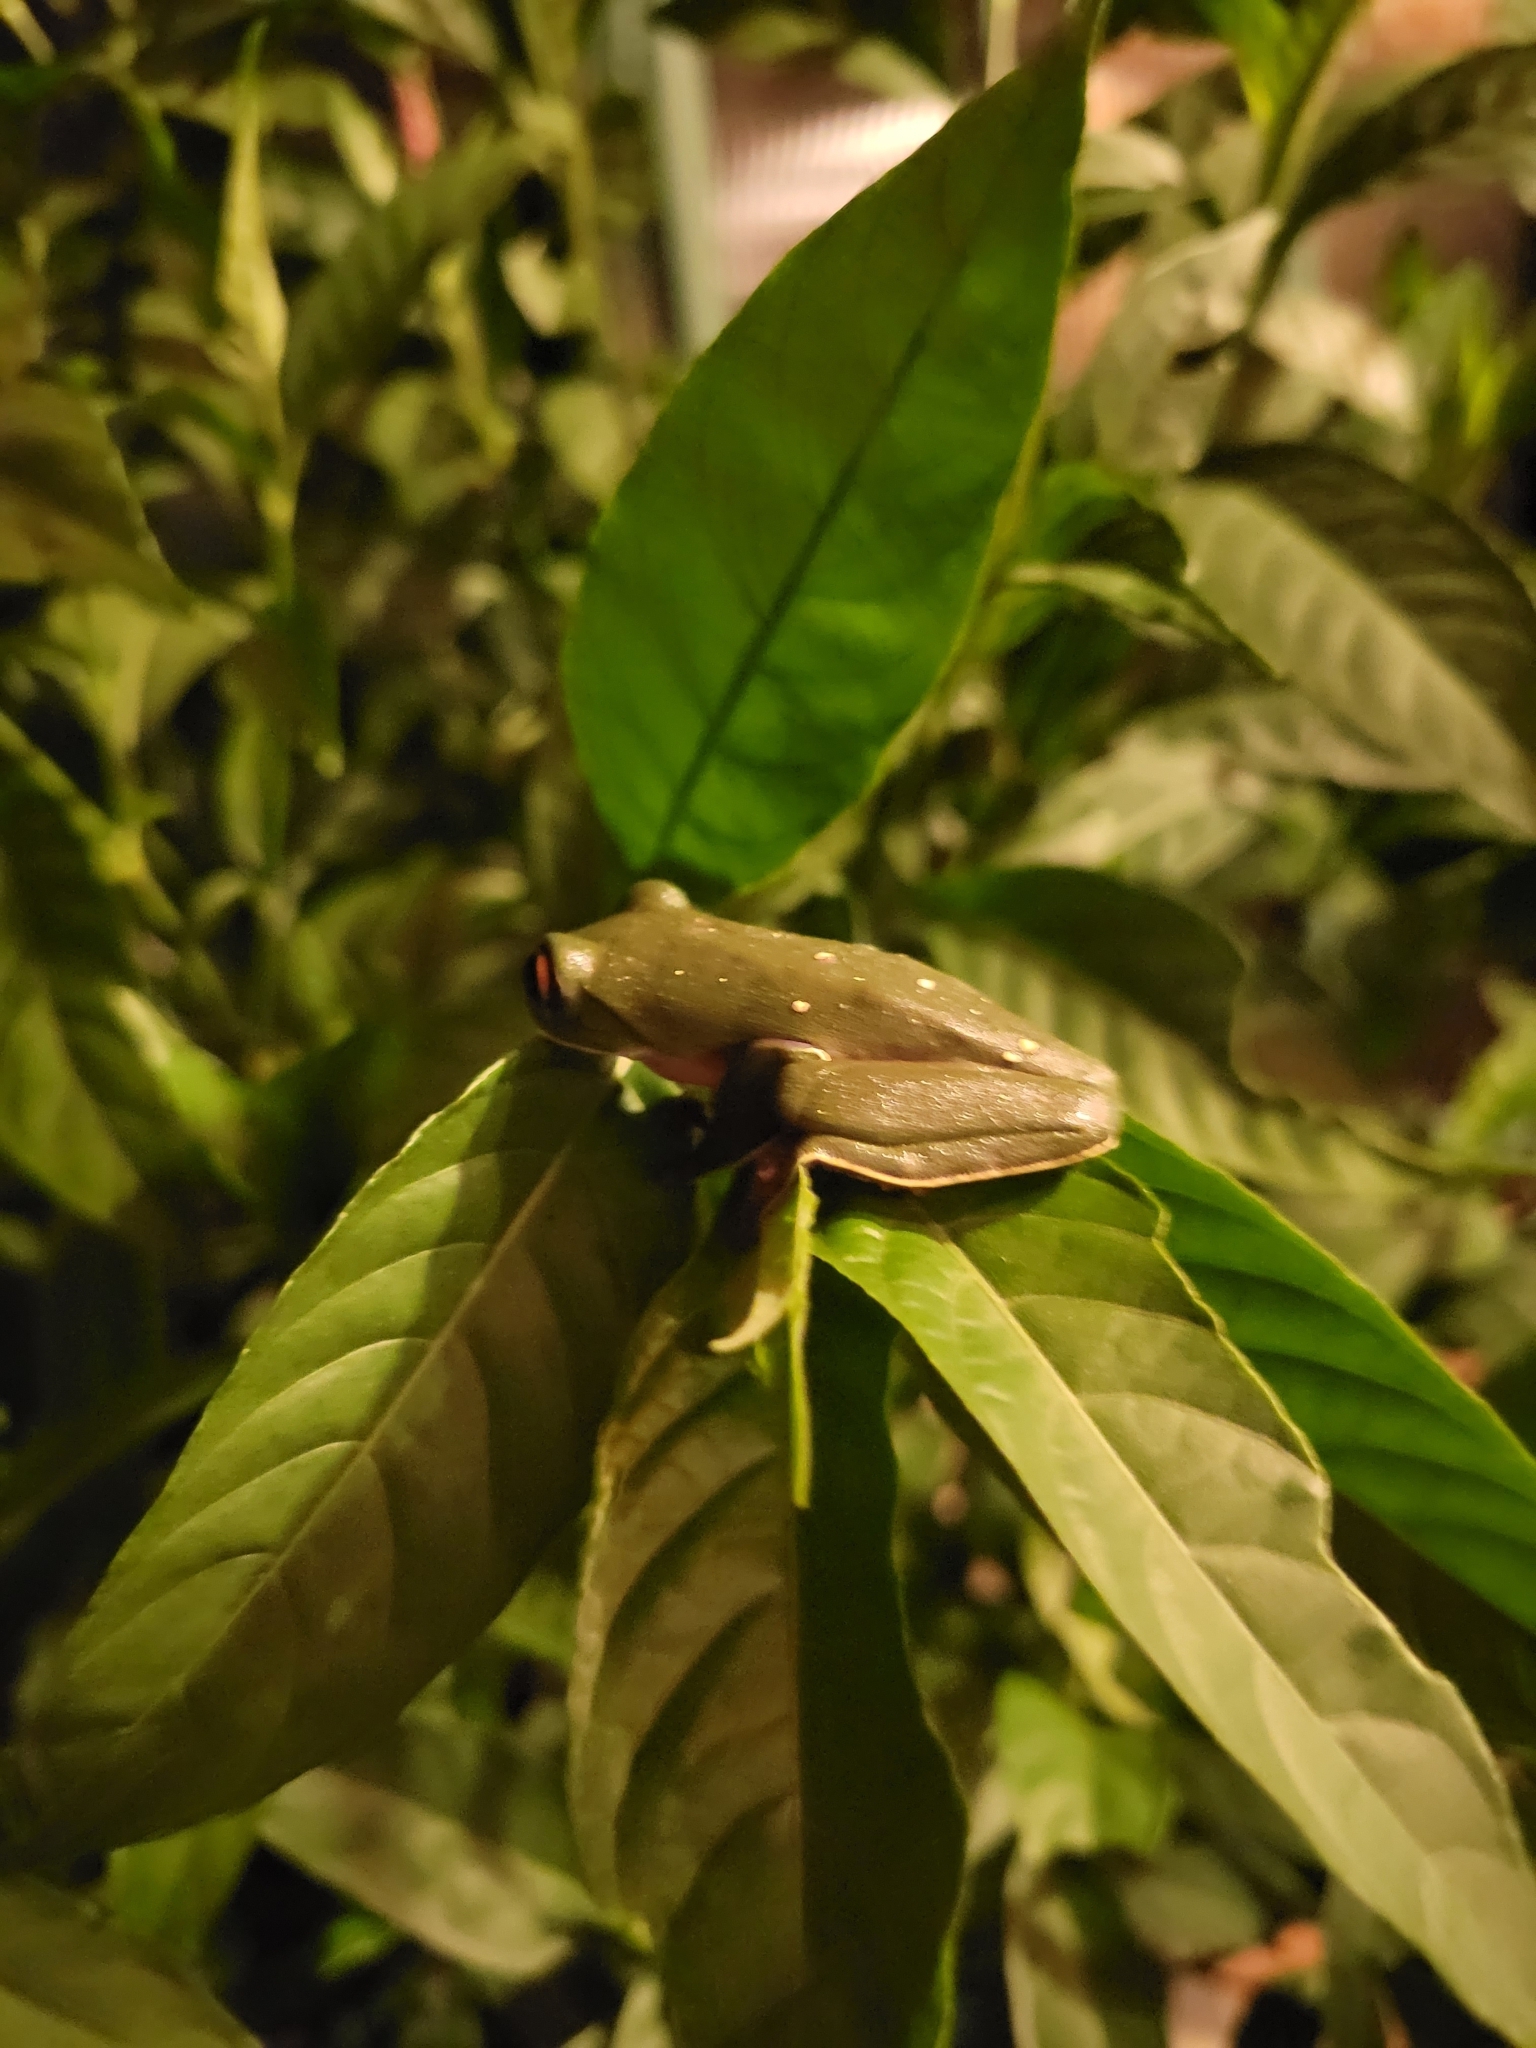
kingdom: Animalia
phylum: Chordata
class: Amphibia
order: Anura
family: Phyllomedusidae
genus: Agalychnis
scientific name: Agalychnis annae
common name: Blue-sided treefrog
